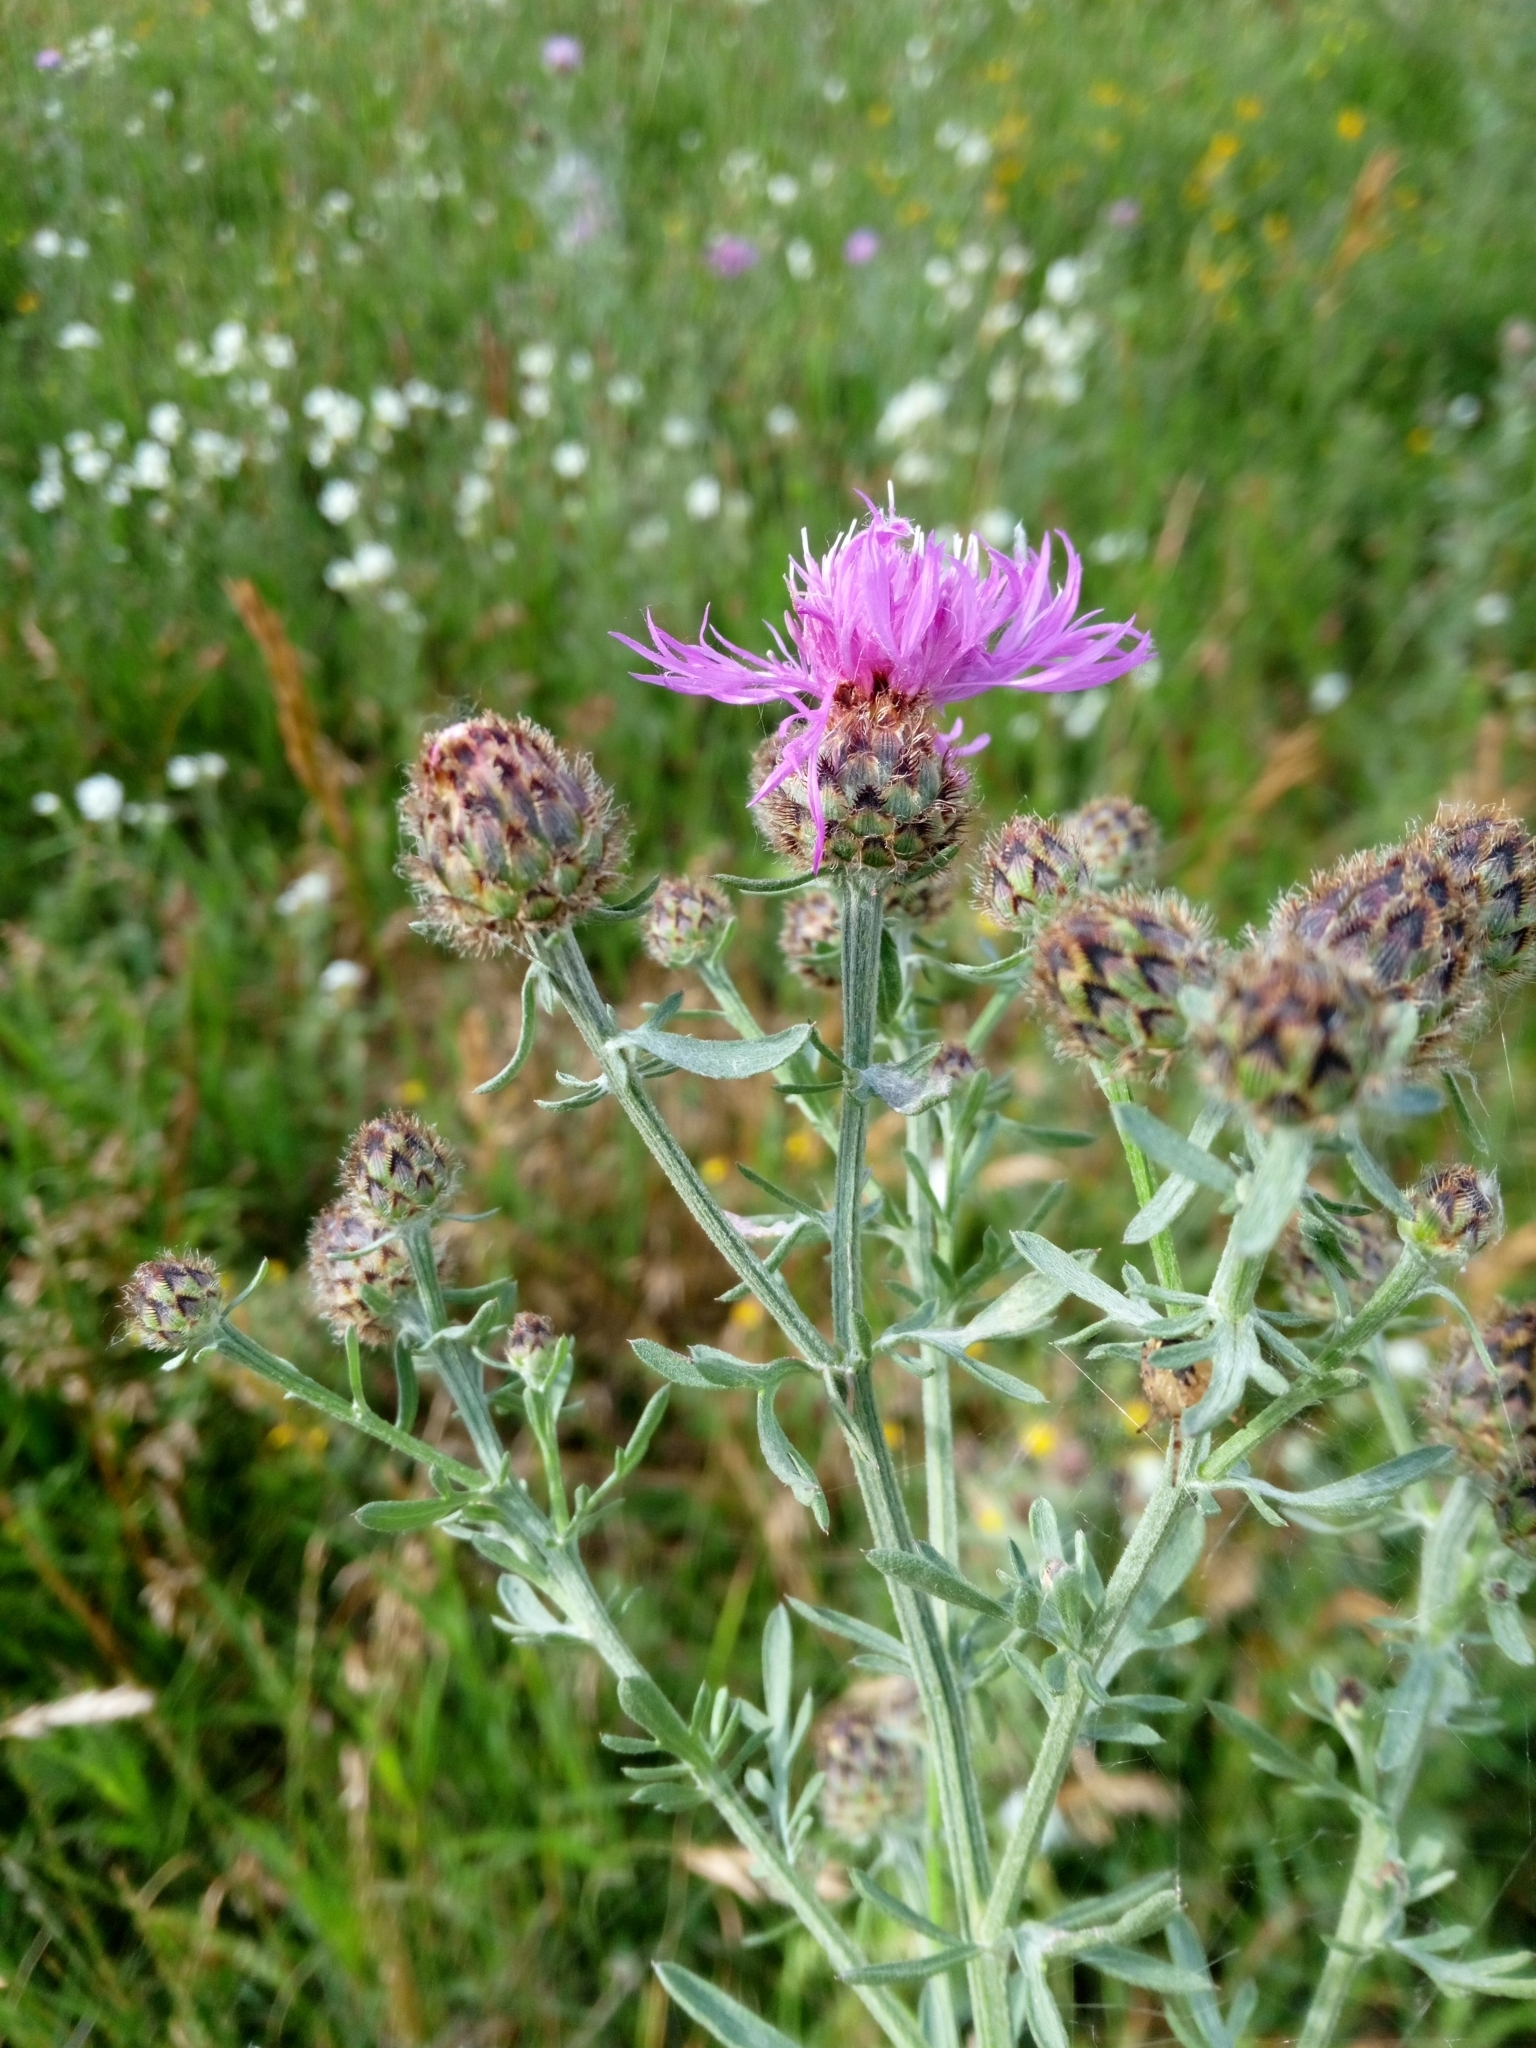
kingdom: Plantae
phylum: Tracheophyta
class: Magnoliopsida
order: Asterales
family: Asteraceae
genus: Centaurea
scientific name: Centaurea stoebe
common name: Spotted knapweed
